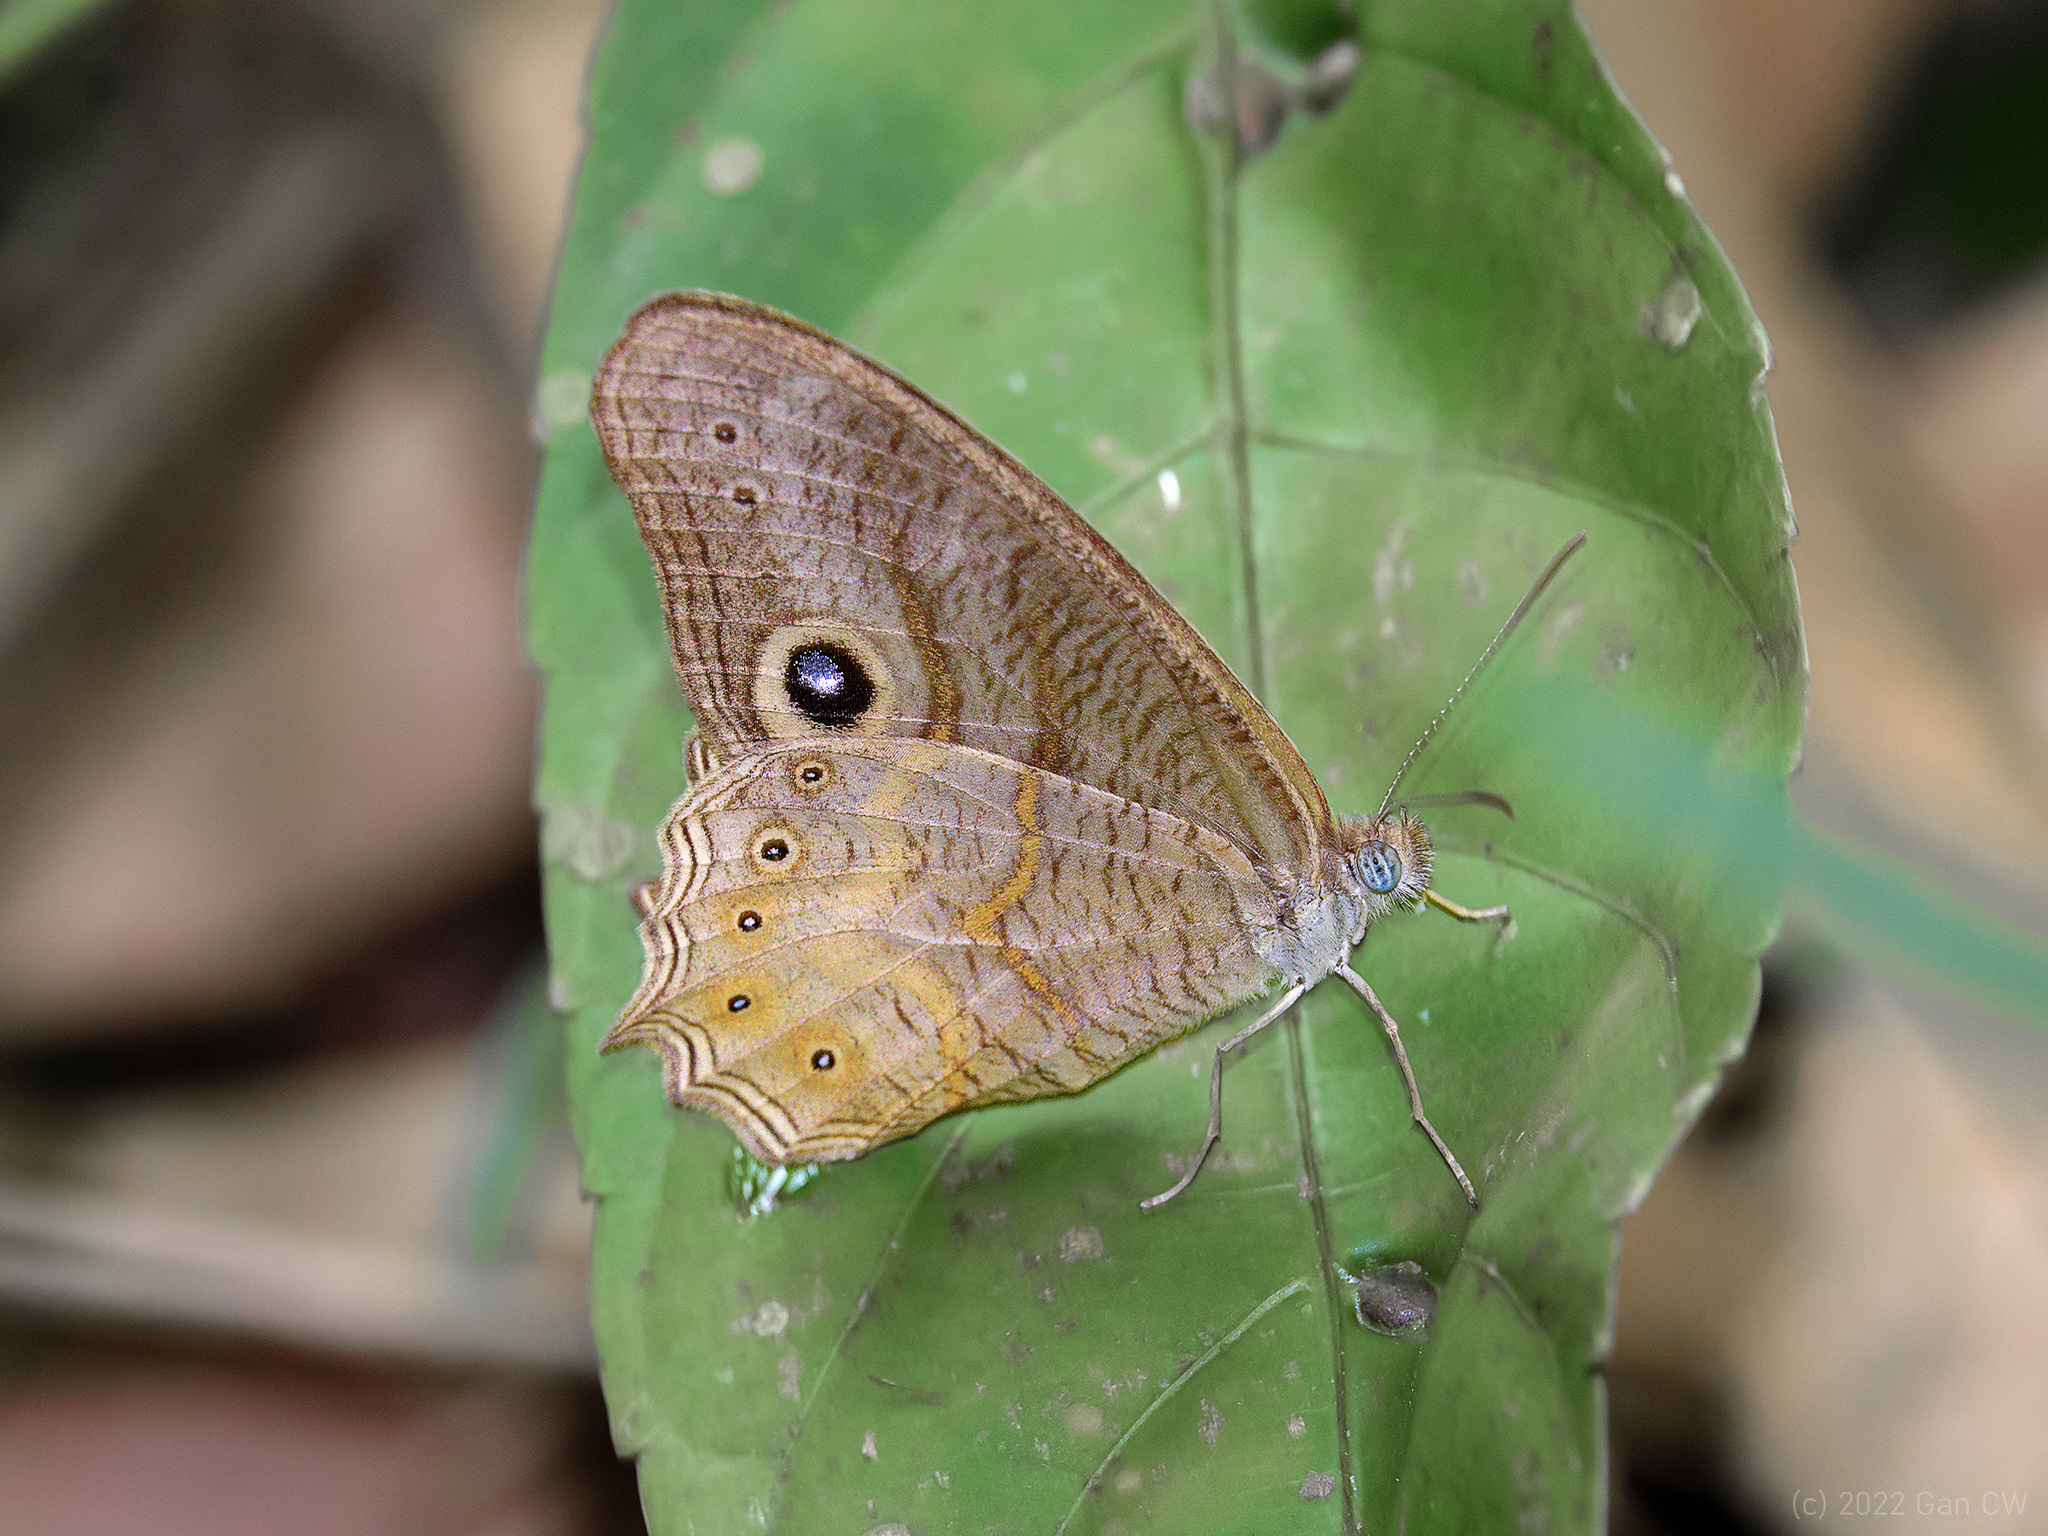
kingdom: Animalia
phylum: Arthropoda
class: Insecta
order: Lepidoptera
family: Nymphalidae
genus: Erites
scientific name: Erites angularis
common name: Angled cyclops
